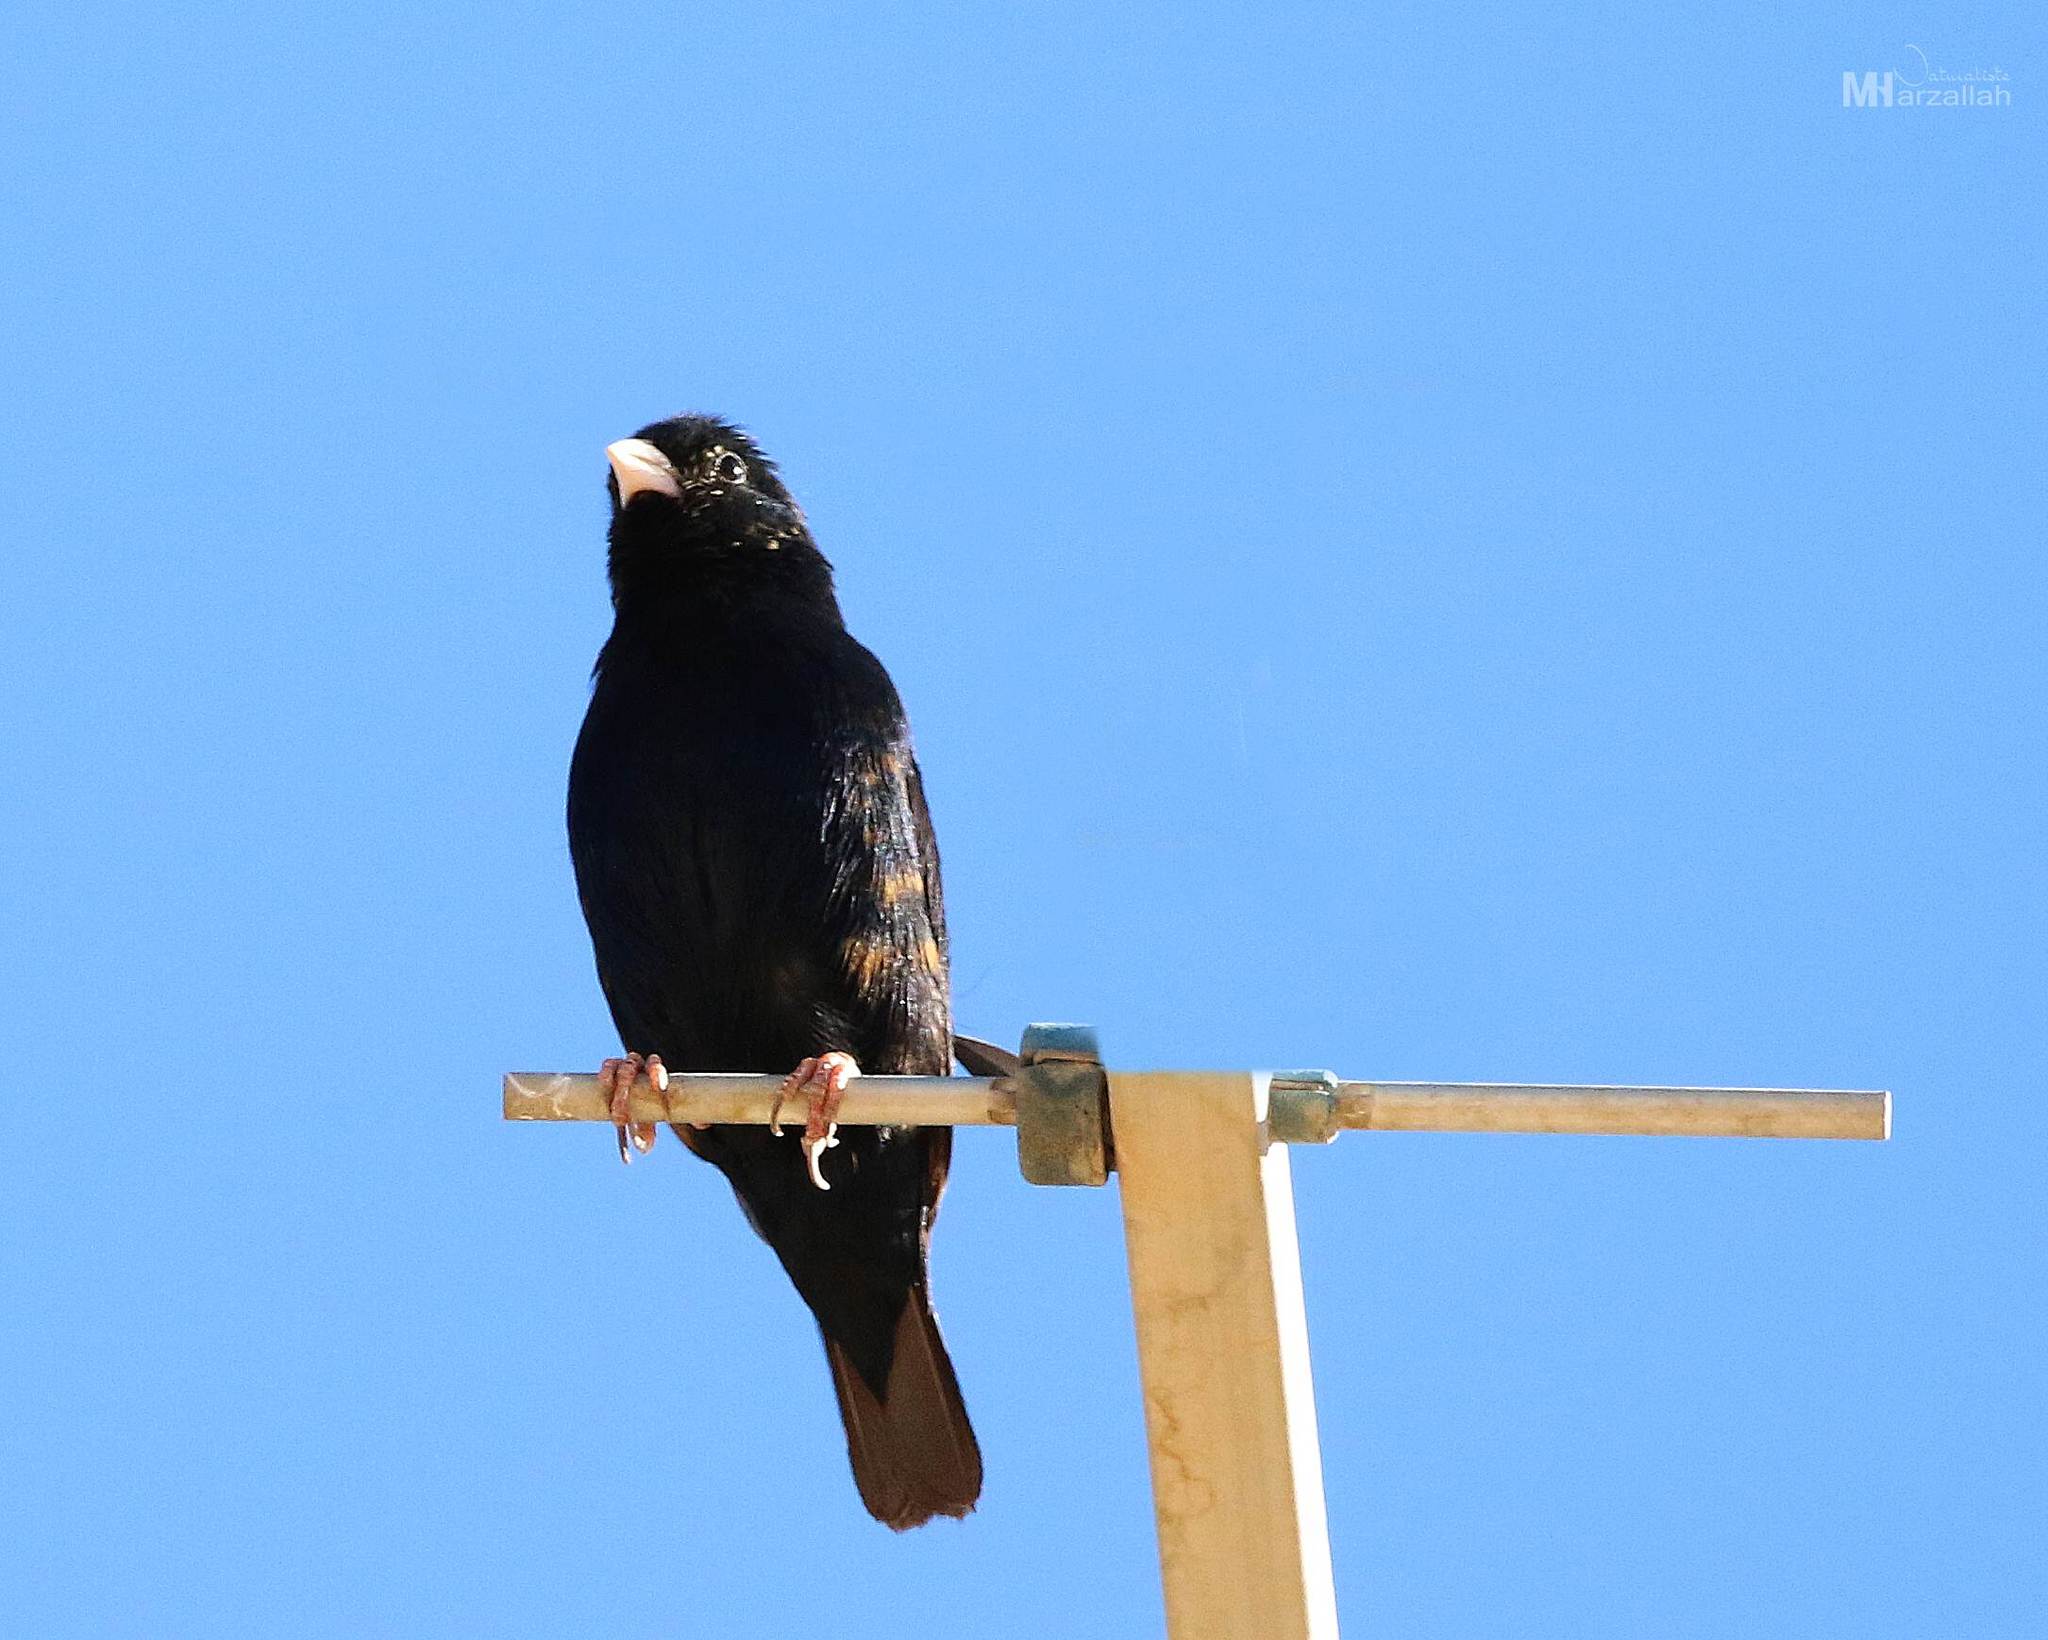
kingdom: Animalia
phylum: Chordata
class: Aves
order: Passeriformes
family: Viduidae
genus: Vidua
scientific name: Vidua chalybeata
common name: Village indigobird
